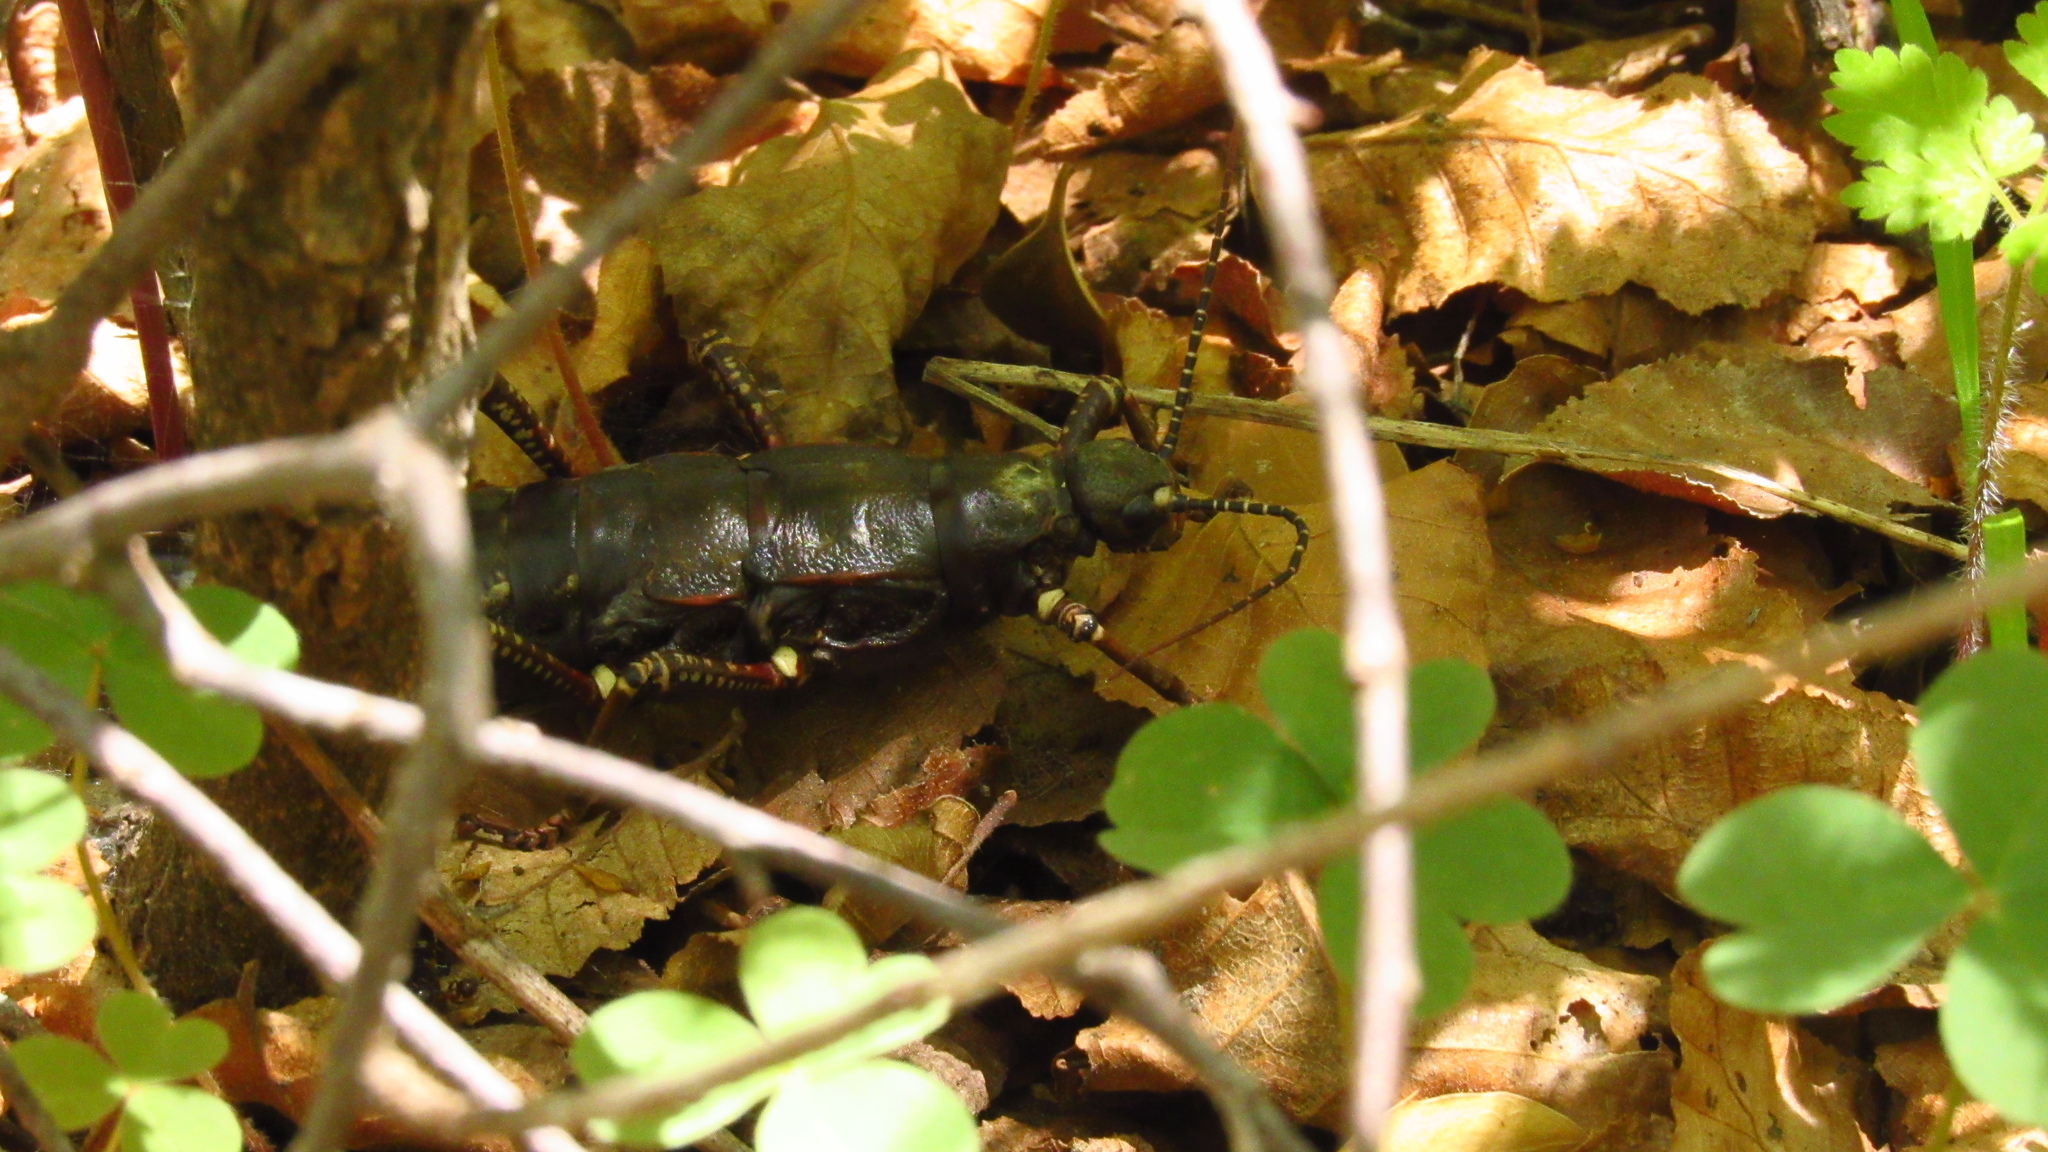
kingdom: Animalia
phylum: Arthropoda
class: Insecta
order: Phasmida
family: Agathemeridae
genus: Agathemera
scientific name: Agathemera mesoauriculae
